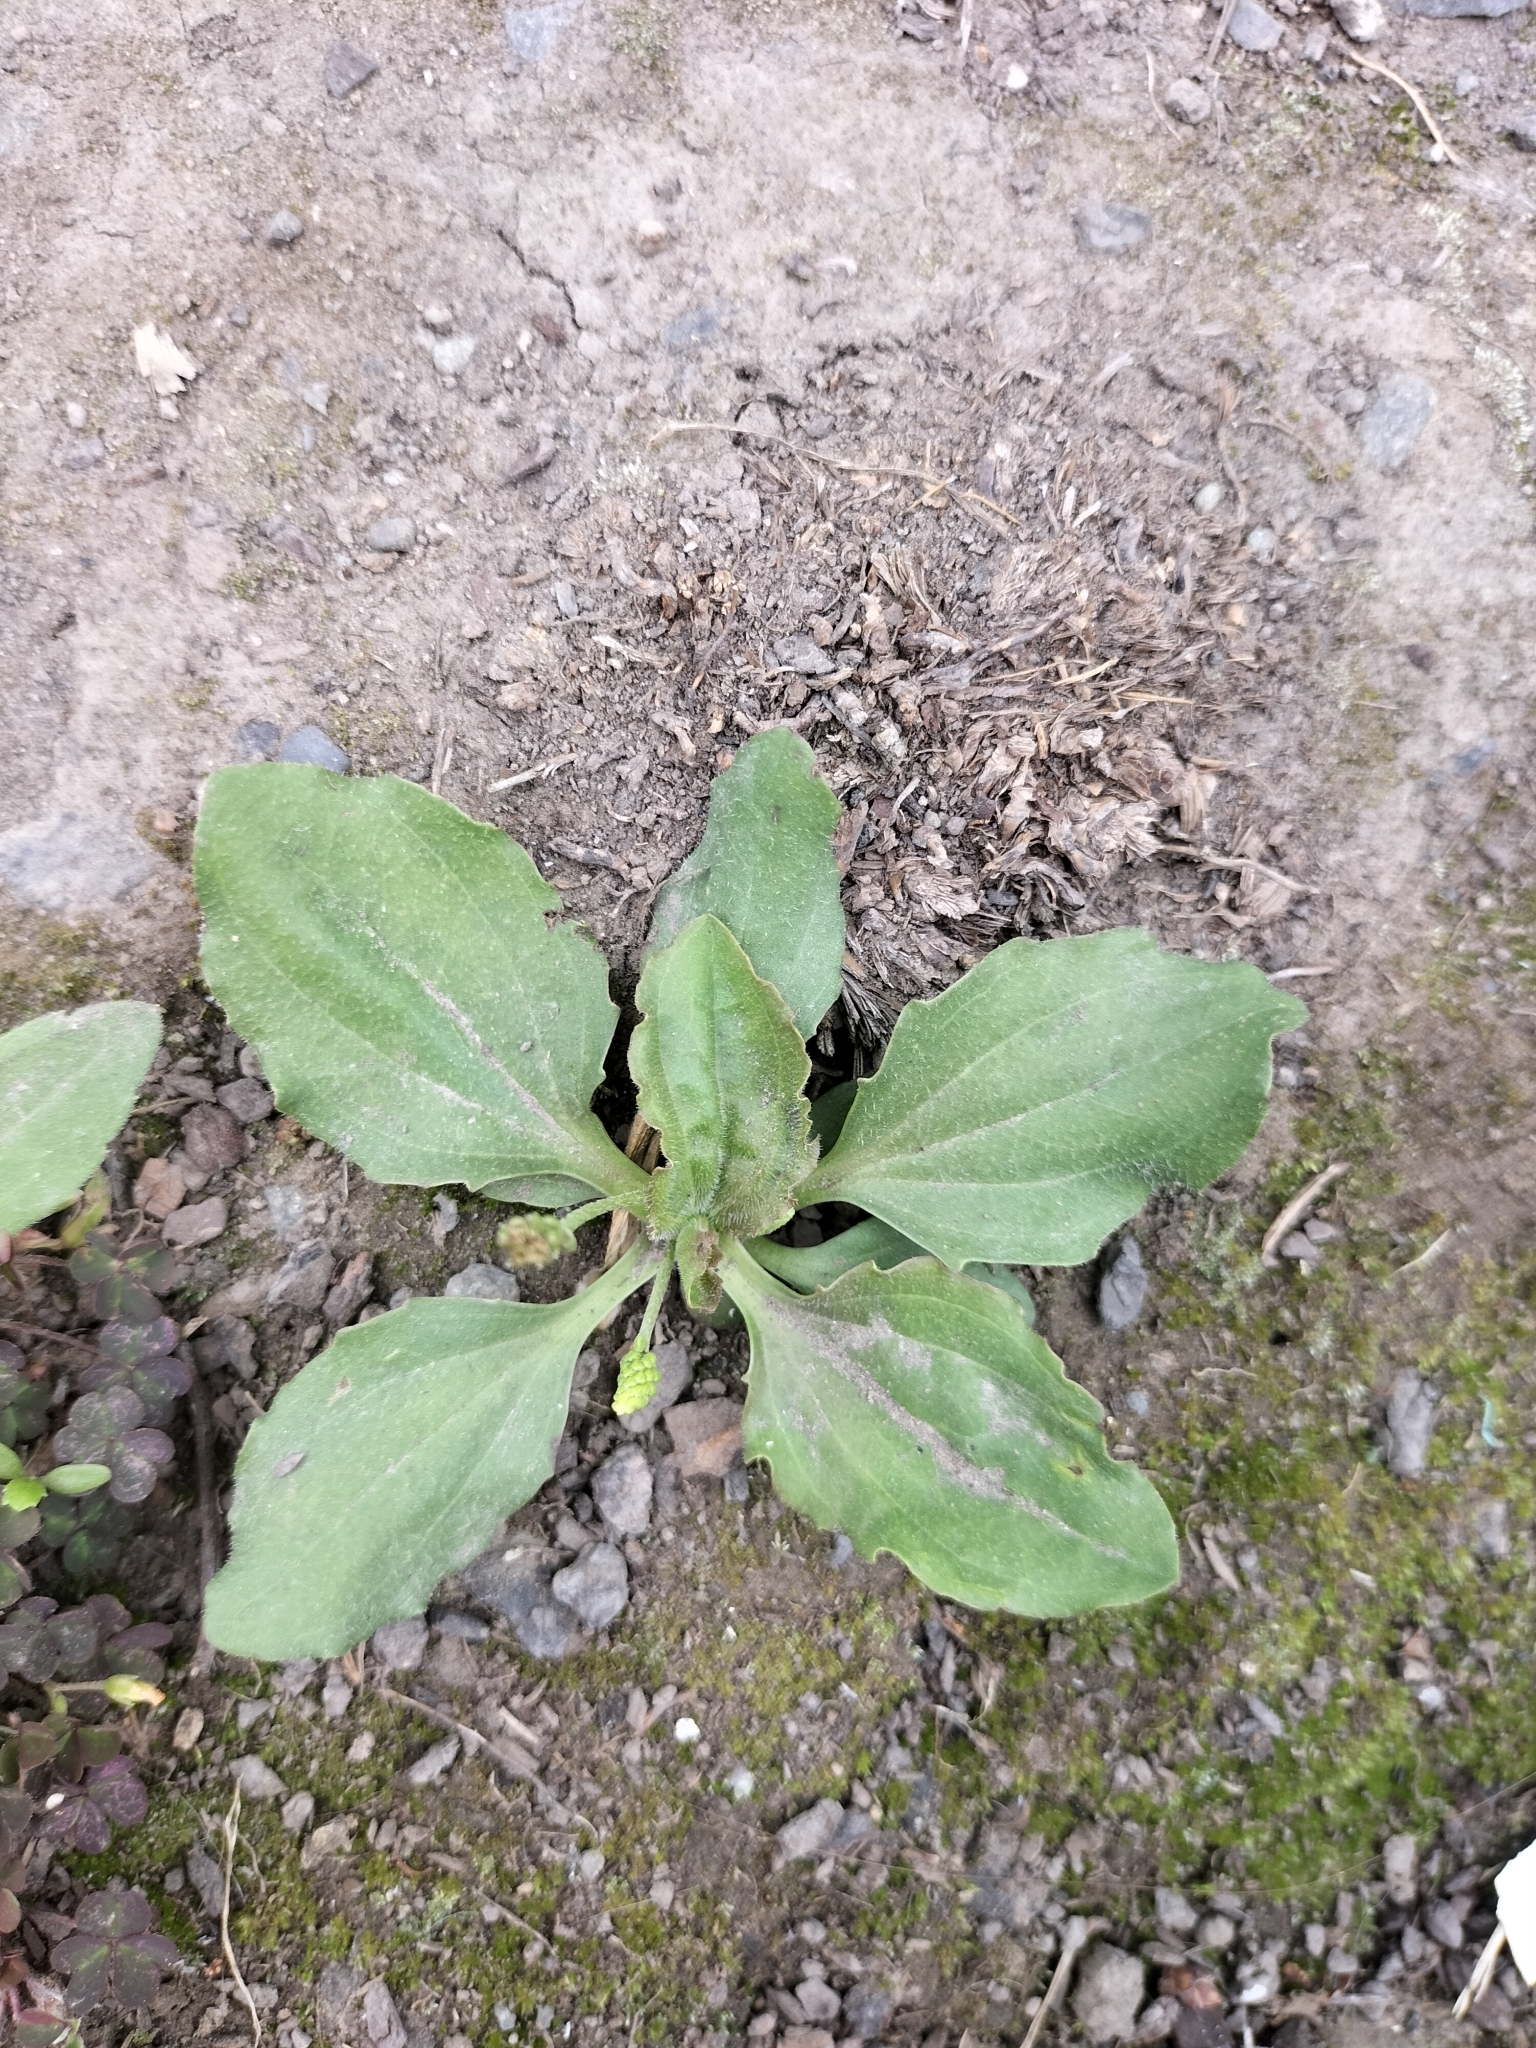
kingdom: Plantae
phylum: Tracheophyta
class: Magnoliopsida
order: Lamiales
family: Plantaginaceae
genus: Plantago
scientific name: Plantago major
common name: Common plantain
